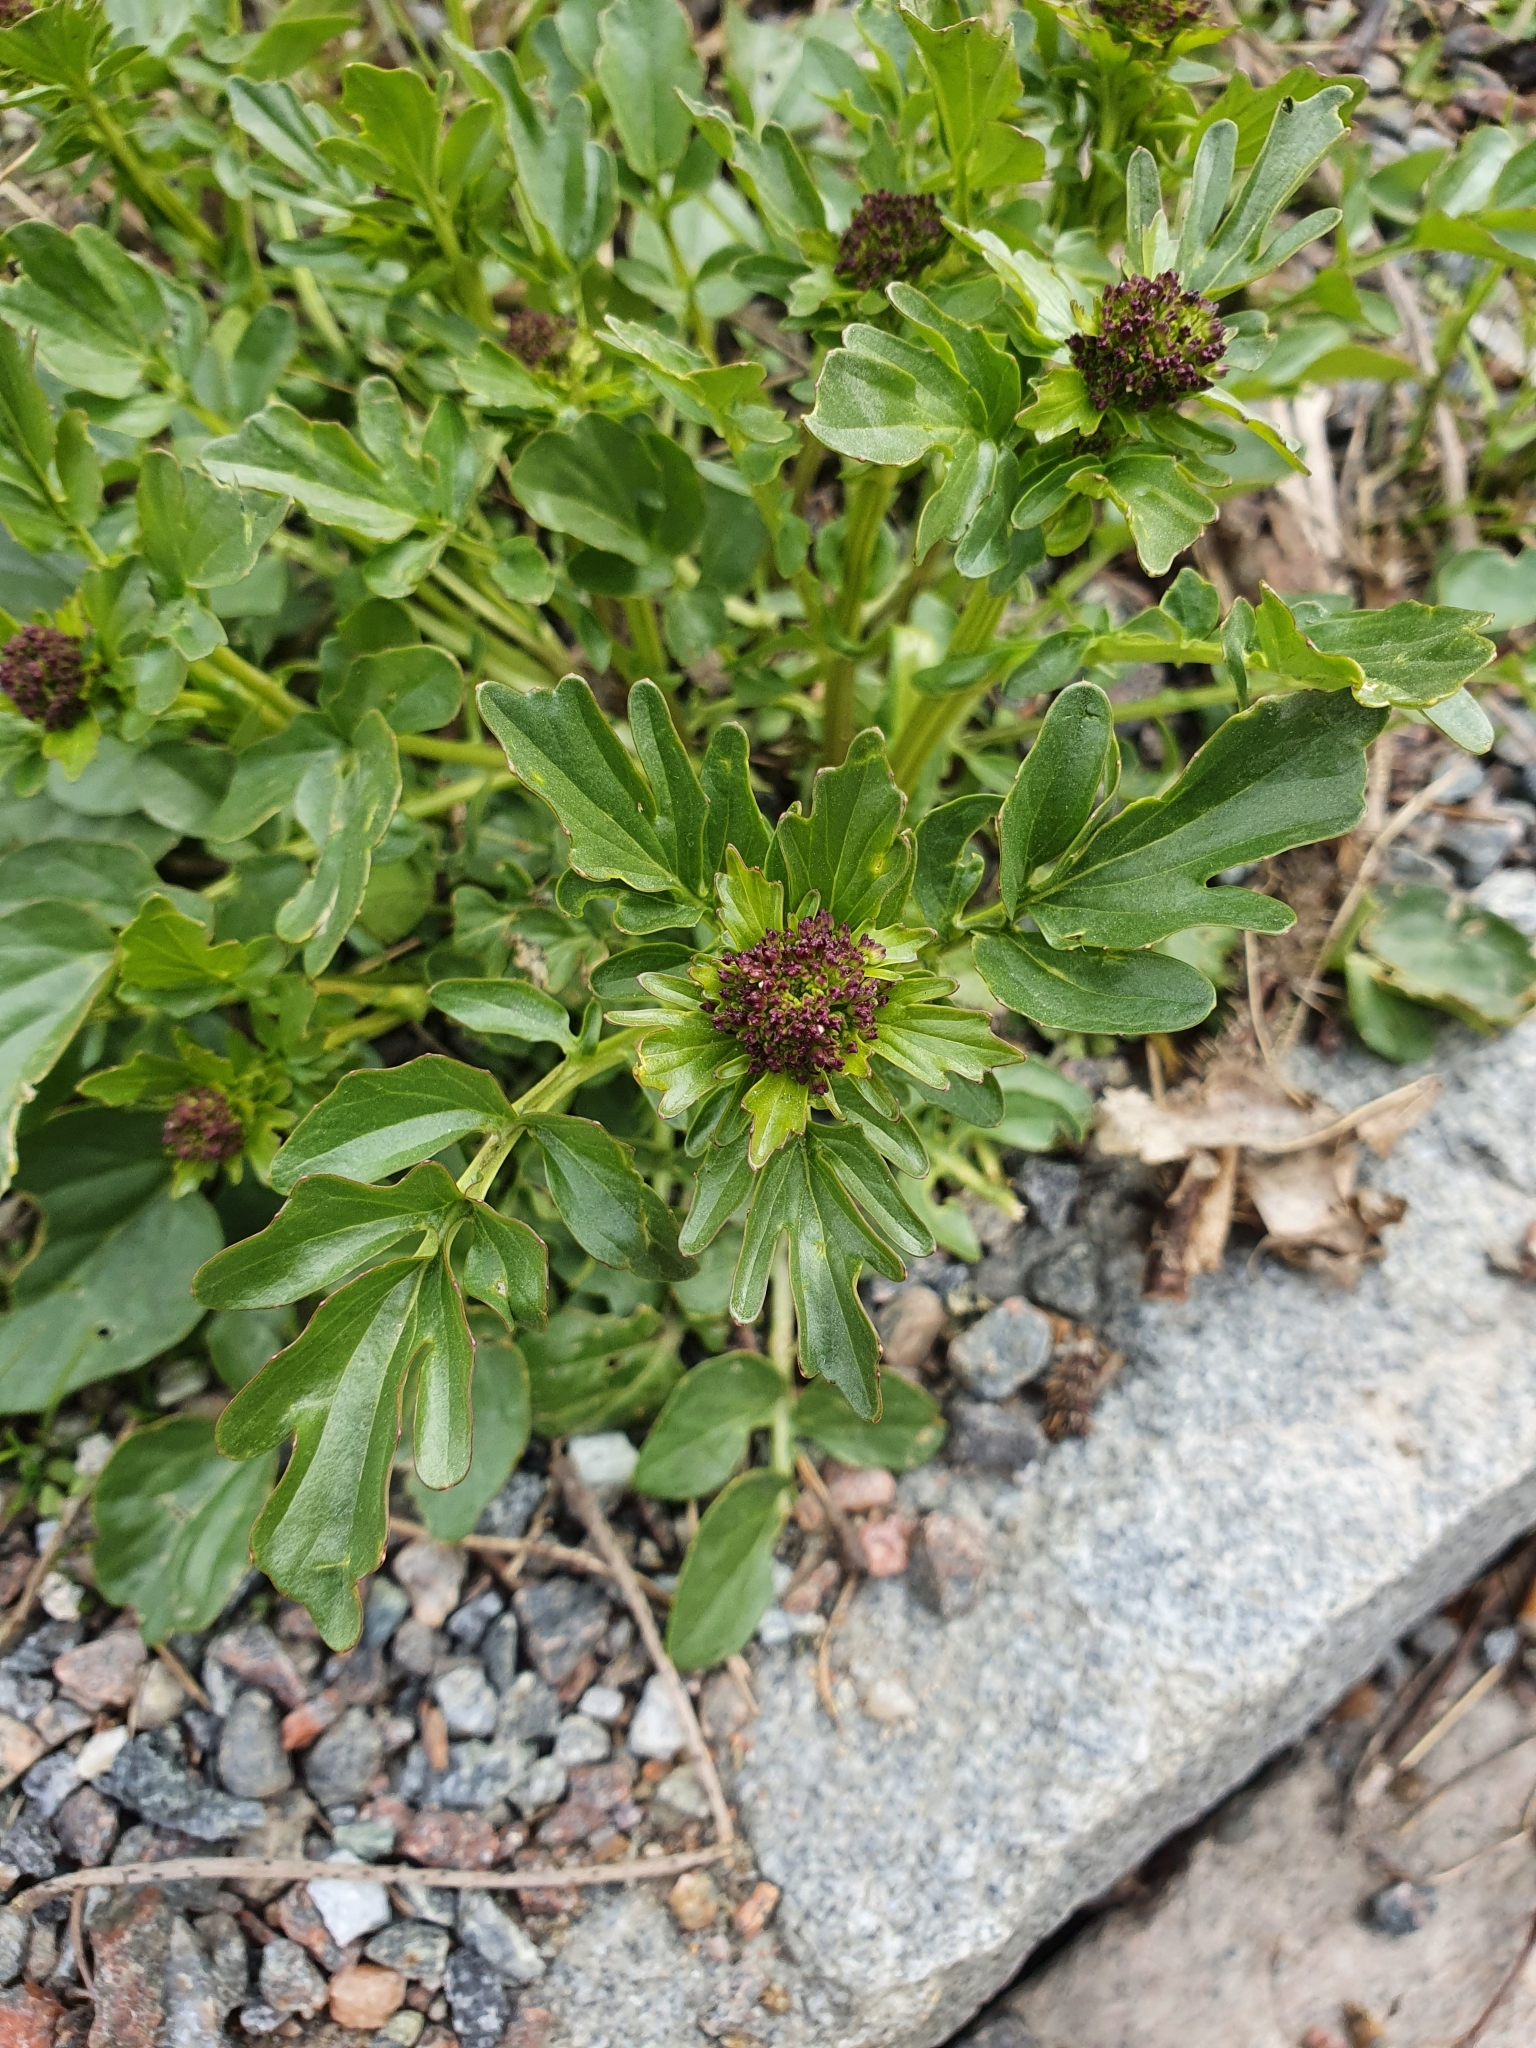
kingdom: Plantae
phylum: Tracheophyta
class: Magnoliopsida
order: Brassicales
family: Brassicaceae
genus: Barbarea
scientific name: Barbarea vulgaris
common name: Cressy-greens
